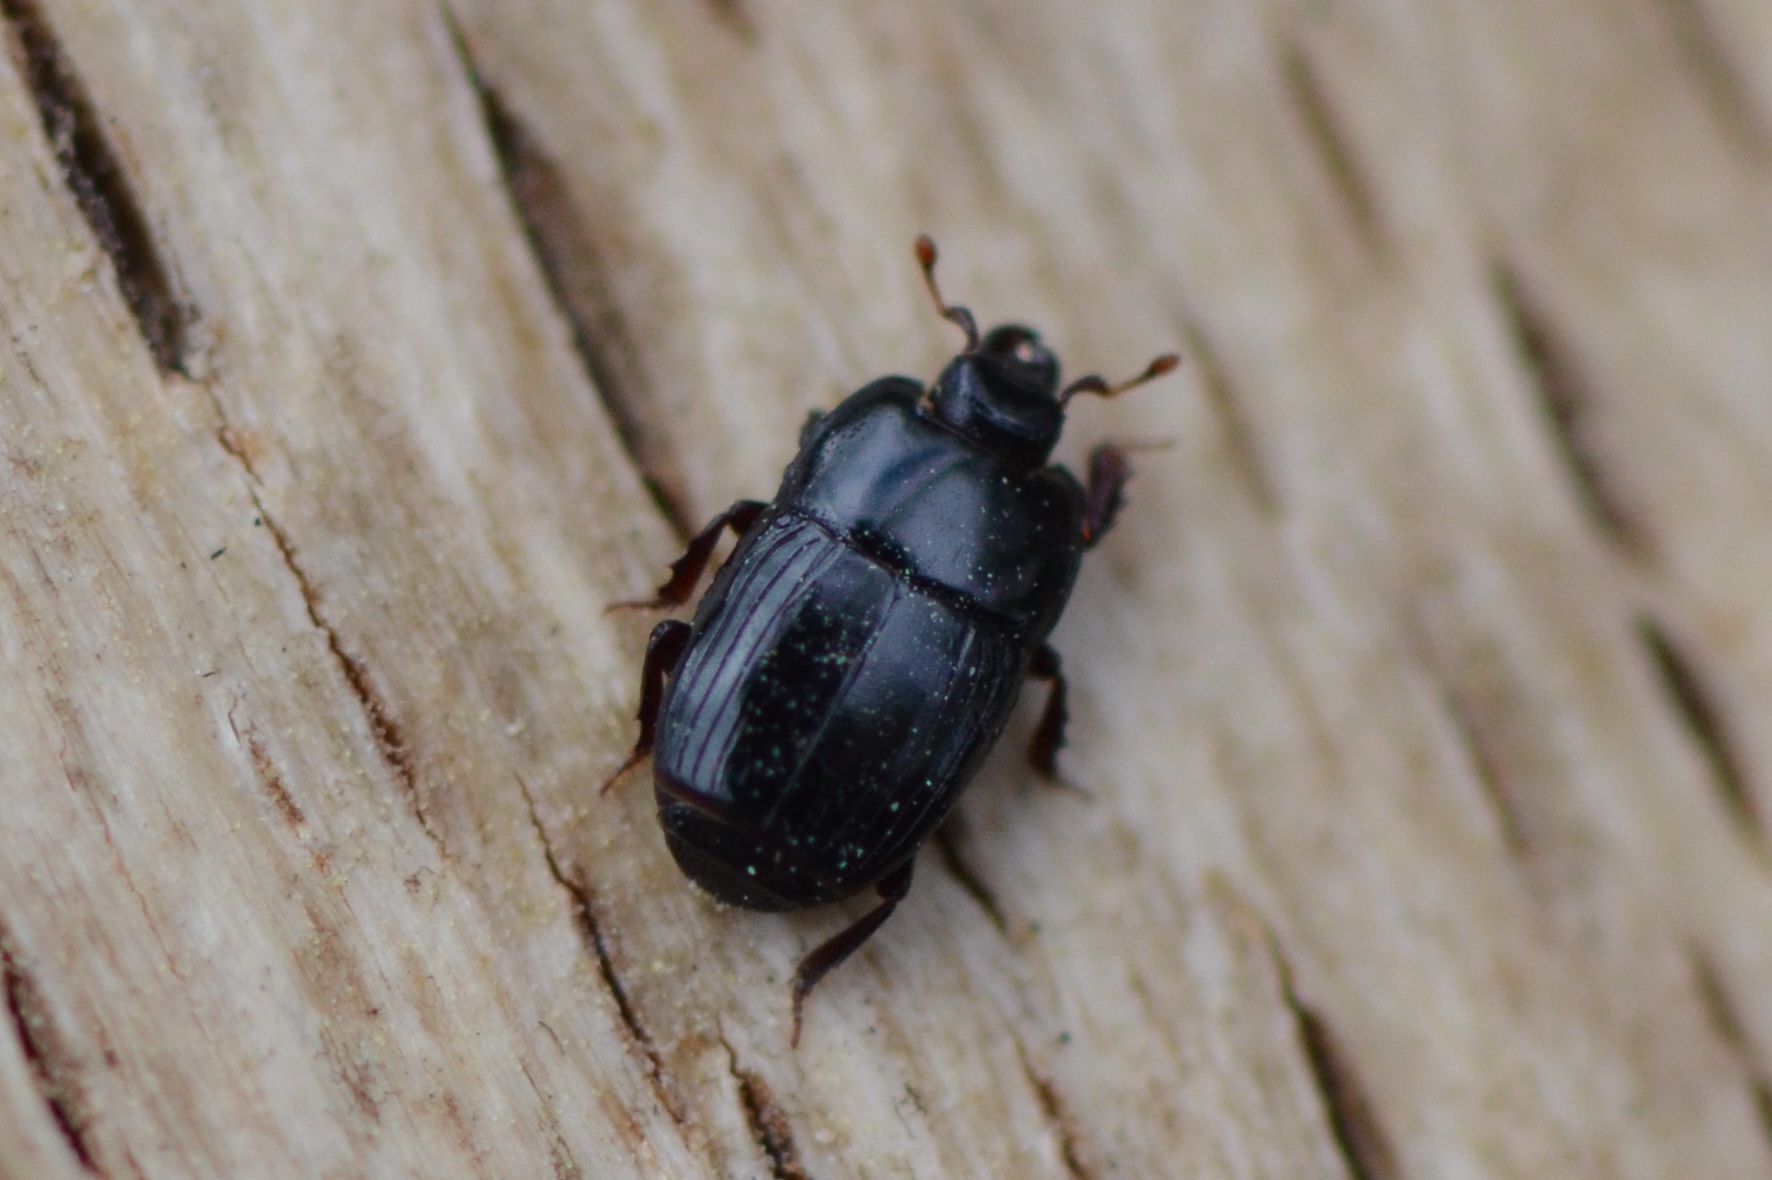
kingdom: Animalia
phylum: Arthropoda
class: Insecta
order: Coleoptera
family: Histeridae
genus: Platysoma
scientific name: Platysoma compressum
